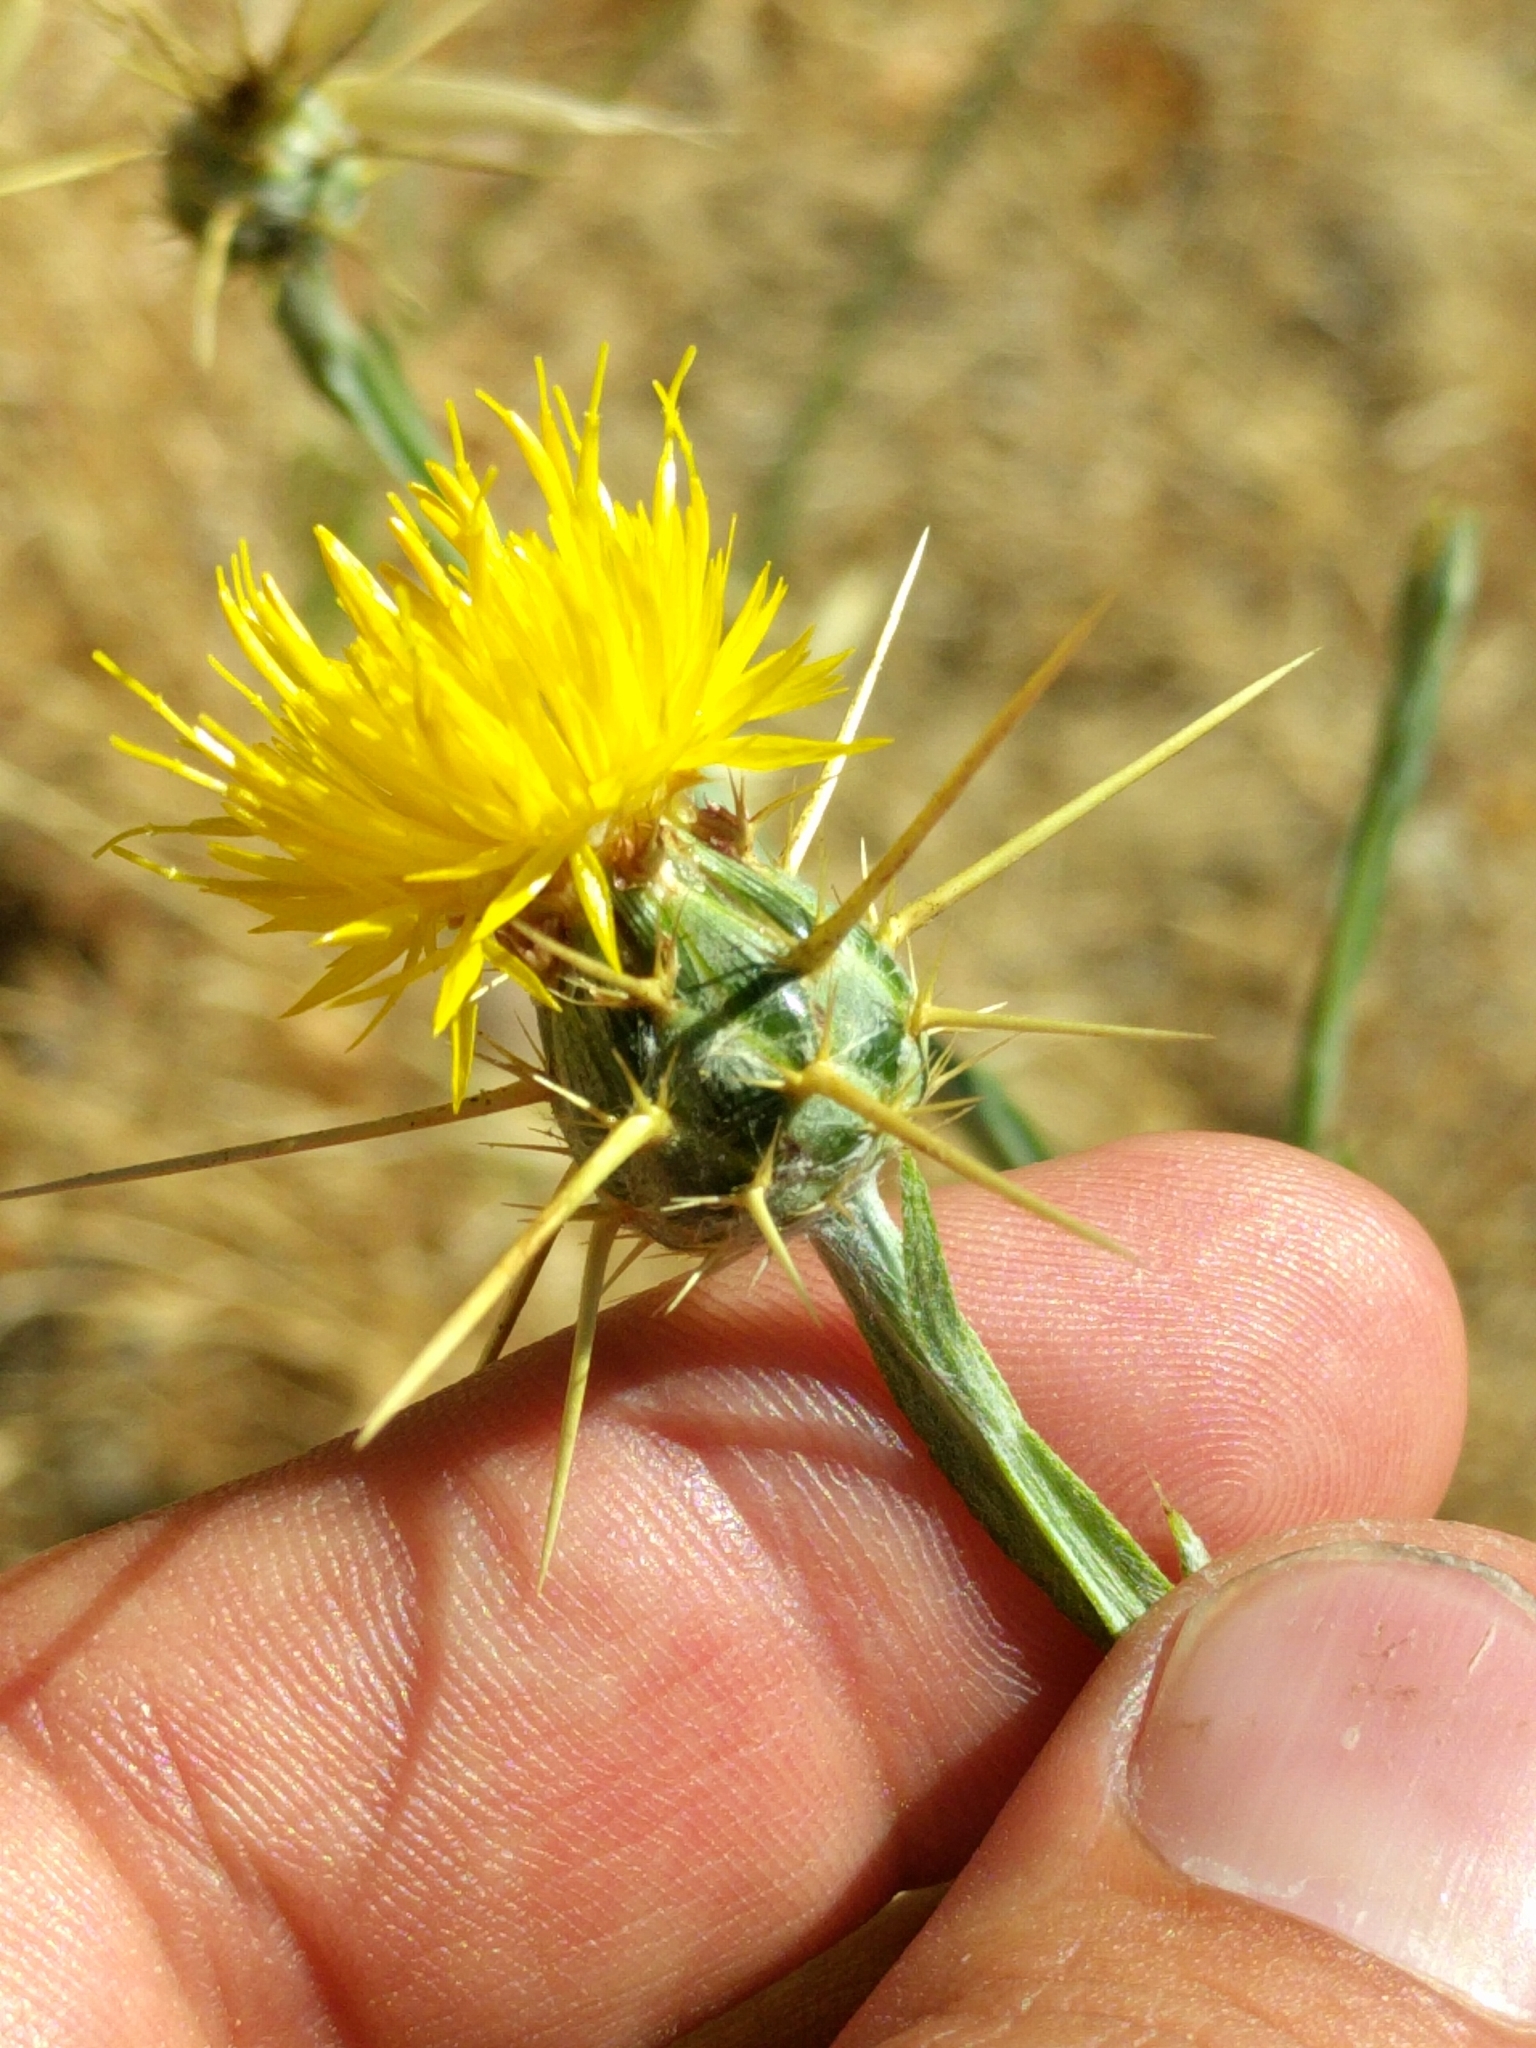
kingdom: Plantae
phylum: Tracheophyta
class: Magnoliopsida
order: Asterales
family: Asteraceae
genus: Centaurea
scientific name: Centaurea solstitialis
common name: Yellow star-thistle
